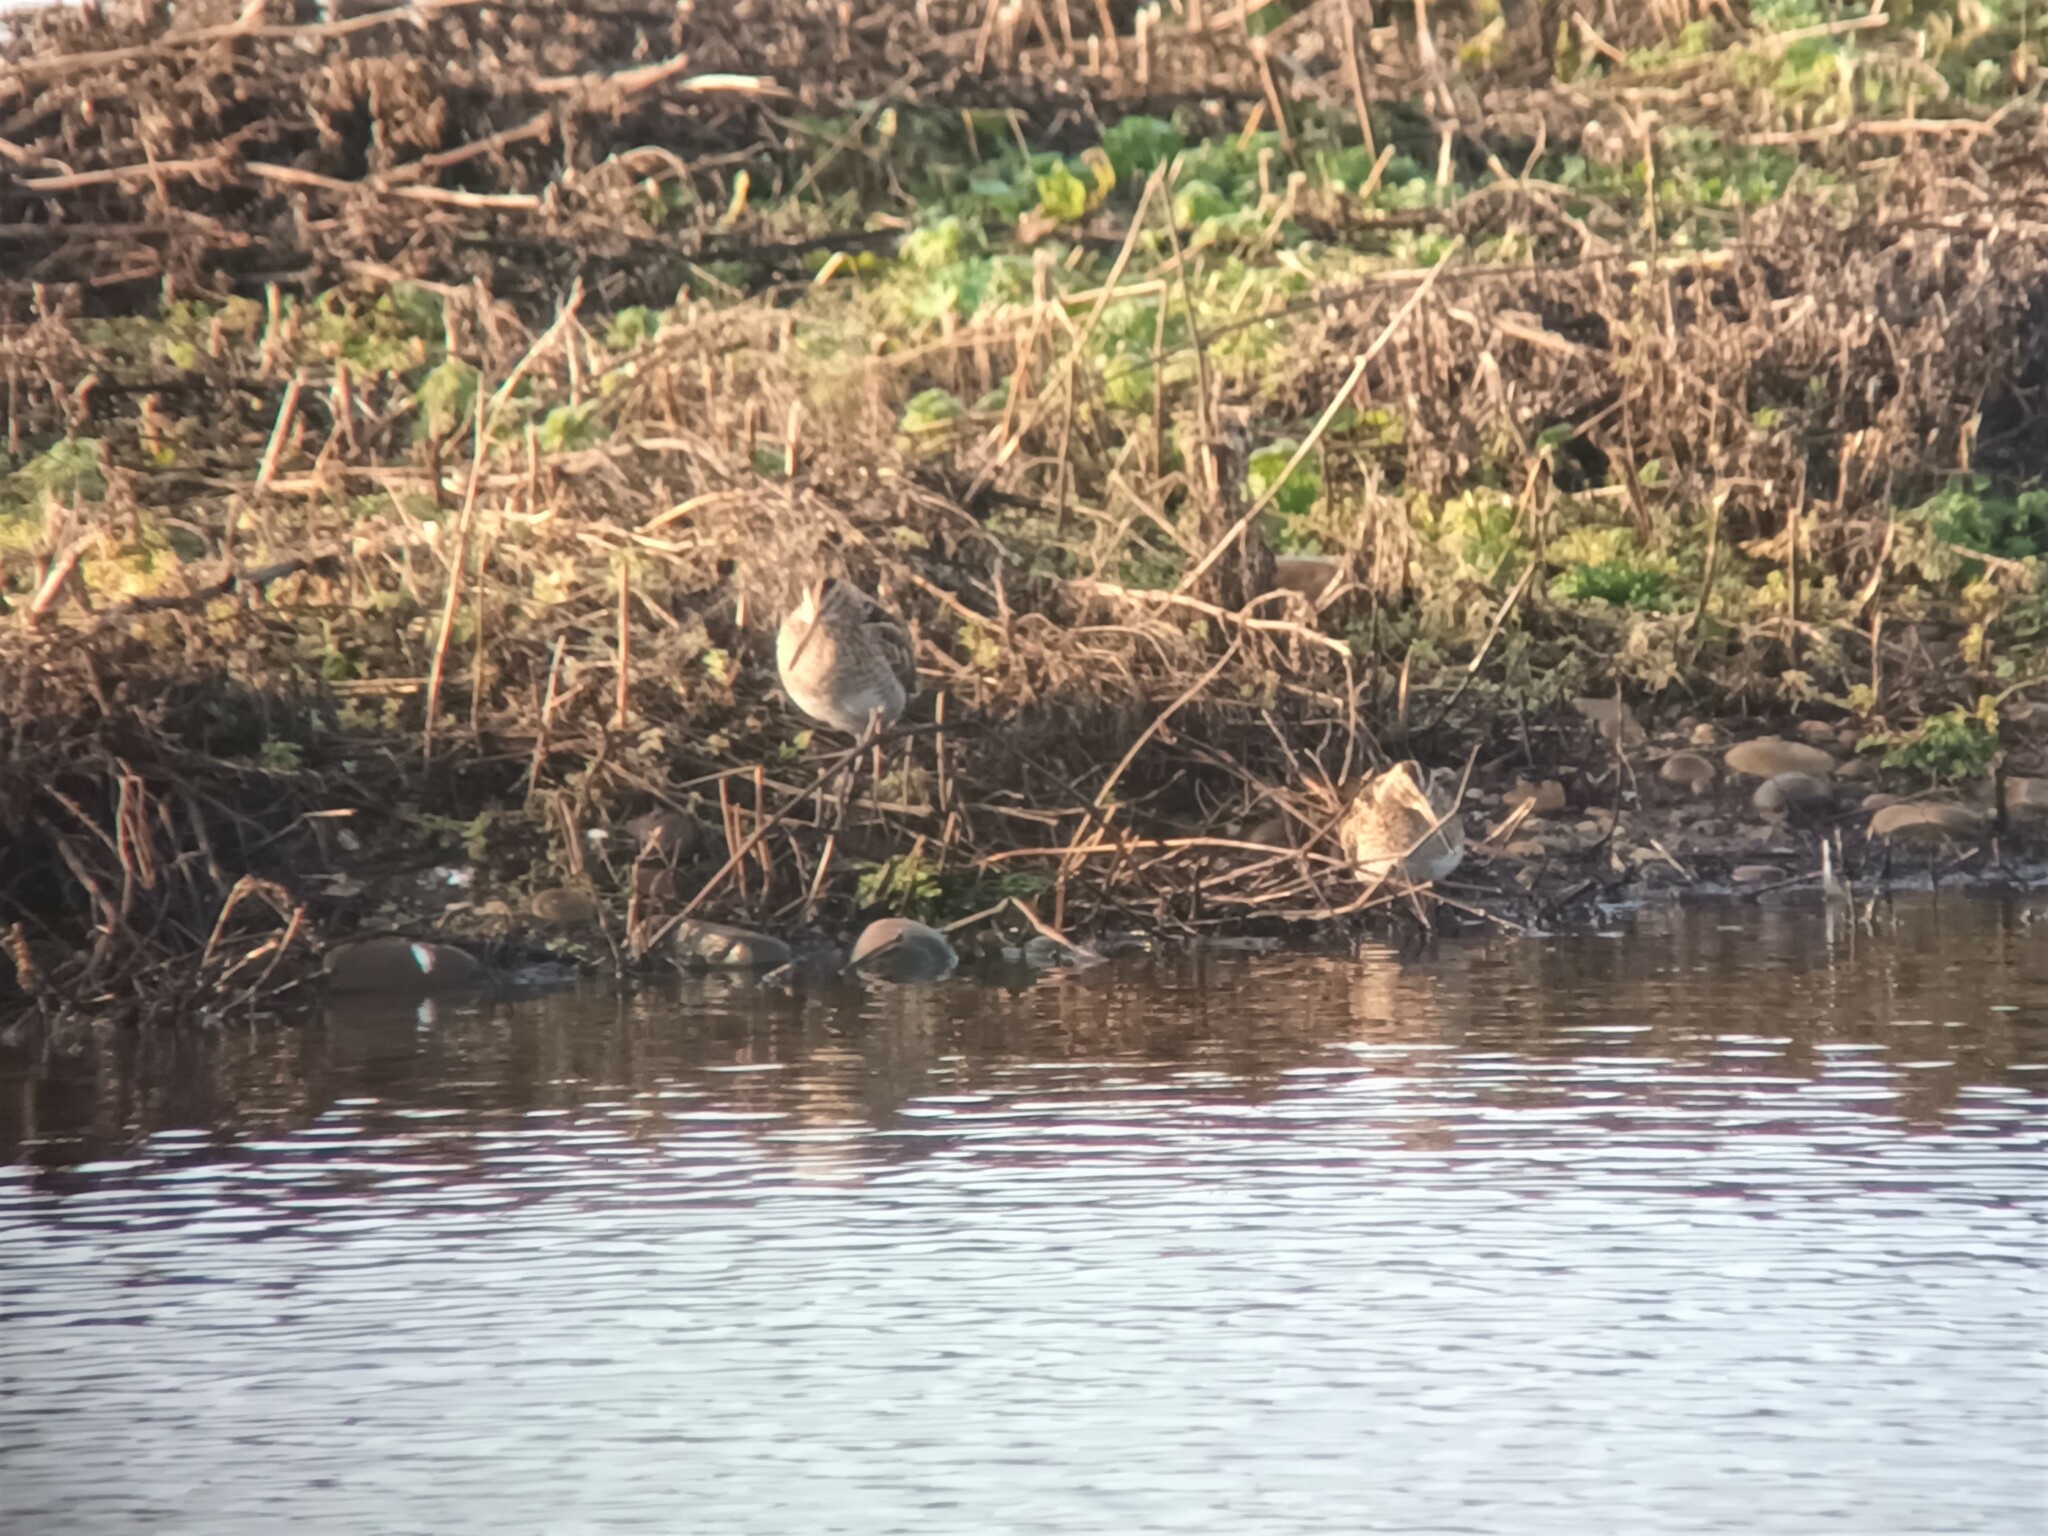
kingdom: Animalia
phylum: Chordata
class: Aves
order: Charadriiformes
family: Scolopacidae
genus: Gallinago
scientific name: Gallinago gallinago
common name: Common snipe
